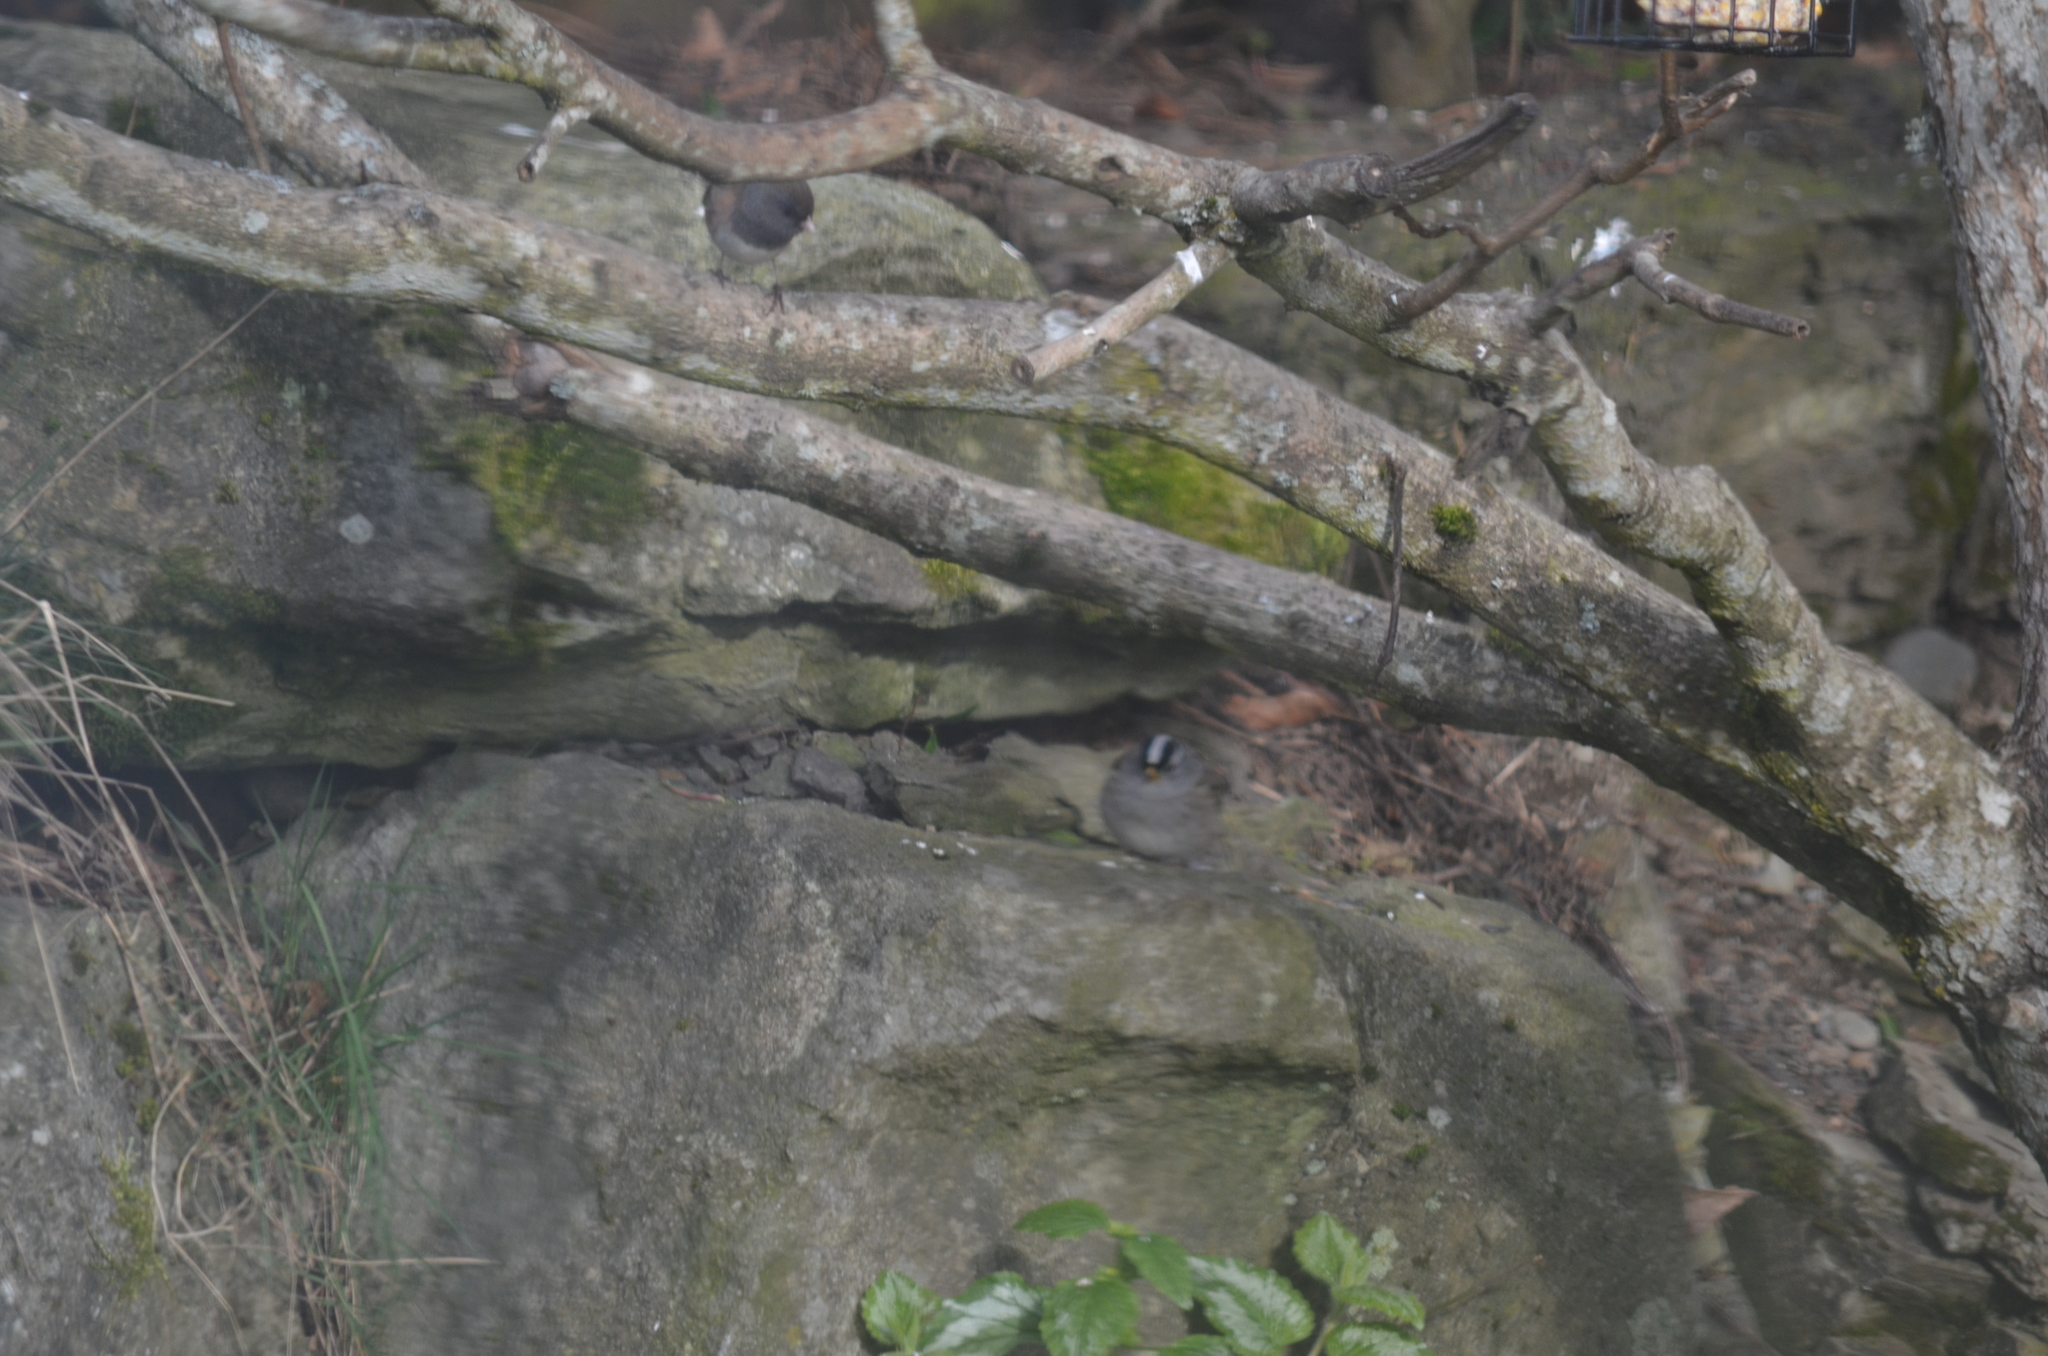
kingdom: Animalia
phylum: Chordata
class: Aves
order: Passeriformes
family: Passerellidae
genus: Zonotrichia
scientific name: Zonotrichia leucophrys
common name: White-crowned sparrow
